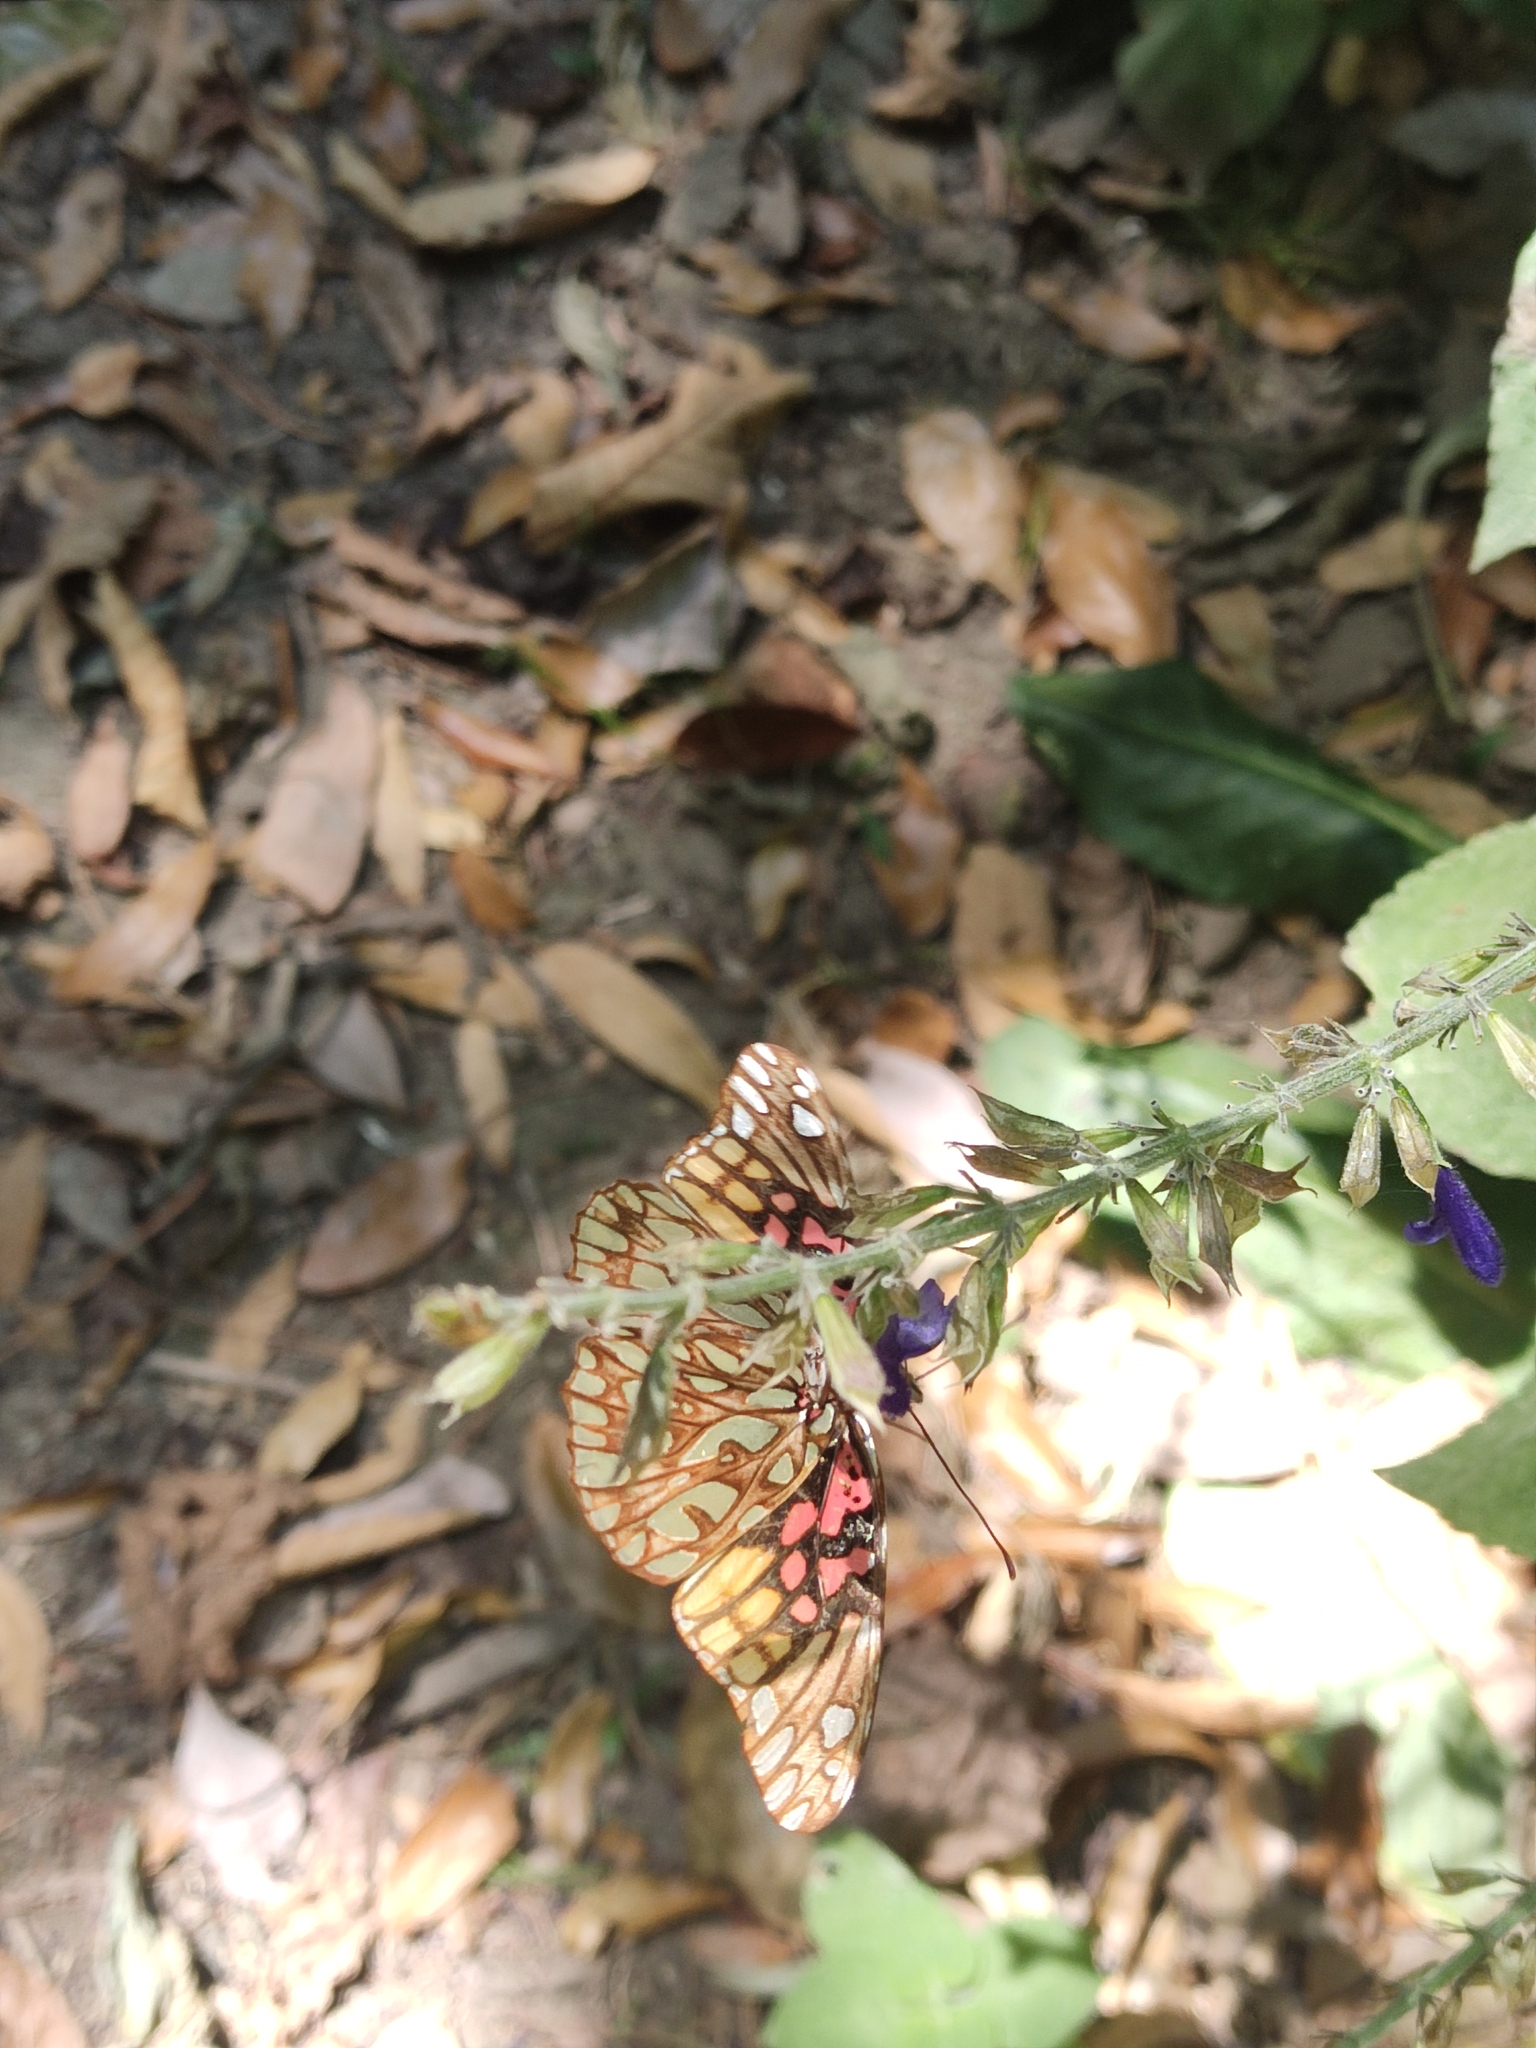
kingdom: Animalia
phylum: Arthropoda
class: Insecta
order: Lepidoptera
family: Nymphalidae
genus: Dione
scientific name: Dione moneta
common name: Mexican silverspot
